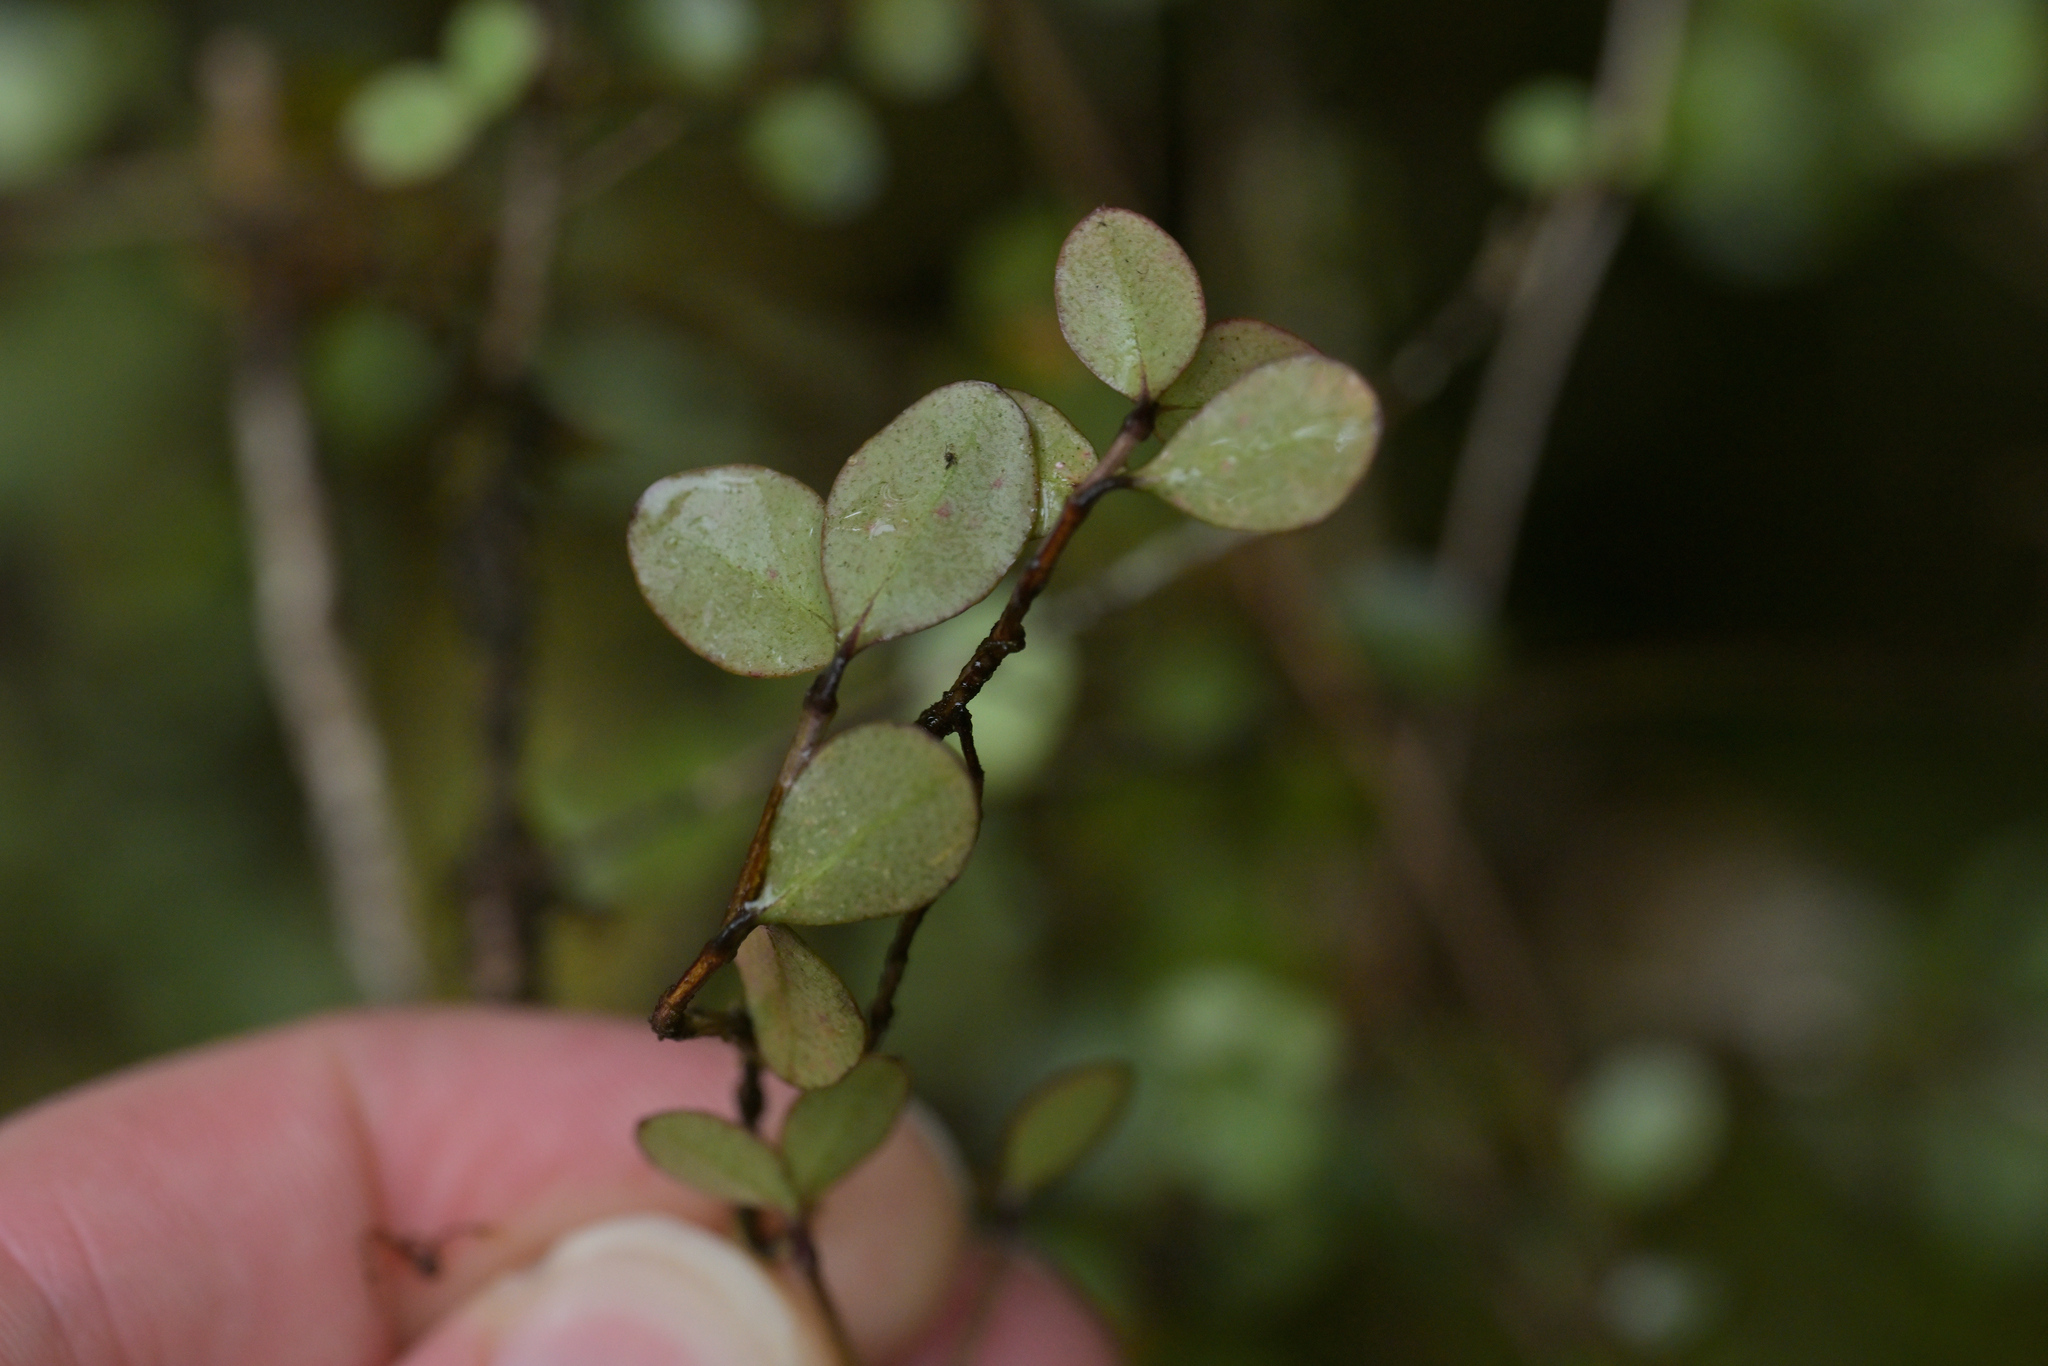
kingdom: Plantae
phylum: Tracheophyta
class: Magnoliopsida
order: Myrtales
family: Myrtaceae
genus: Neomyrtus
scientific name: Neomyrtus pedunculata
